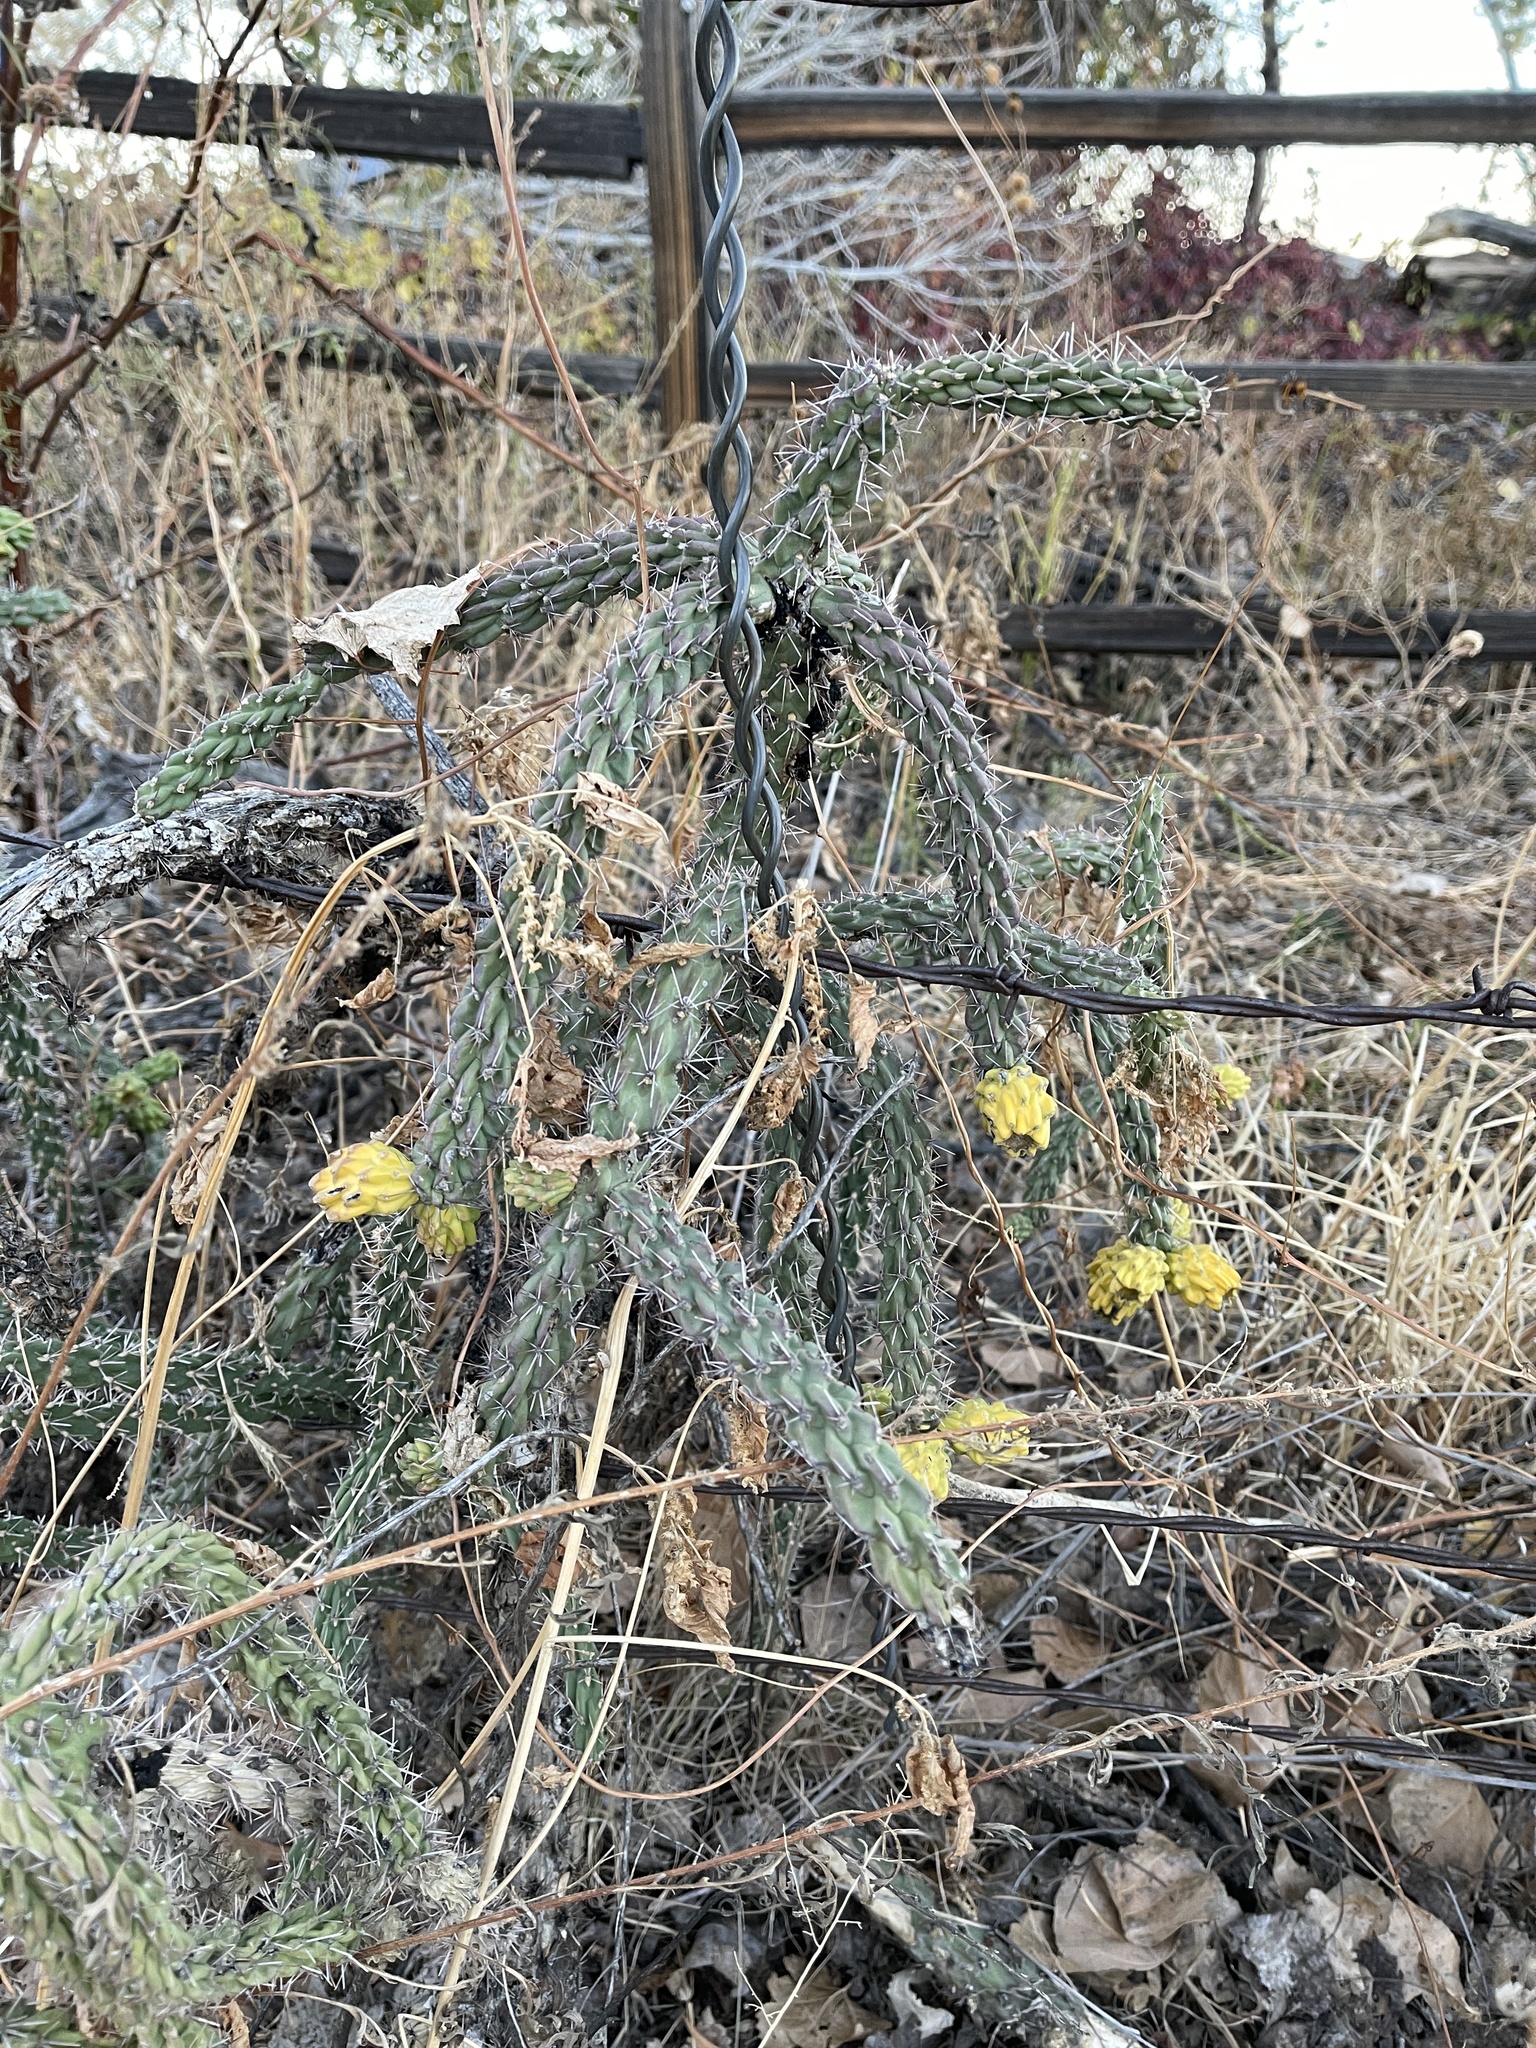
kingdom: Plantae
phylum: Tracheophyta
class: Magnoliopsida
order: Caryophyllales
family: Cactaceae
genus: Cylindropuntia
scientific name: Cylindropuntia imbricata
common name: Candelabrum cactus
